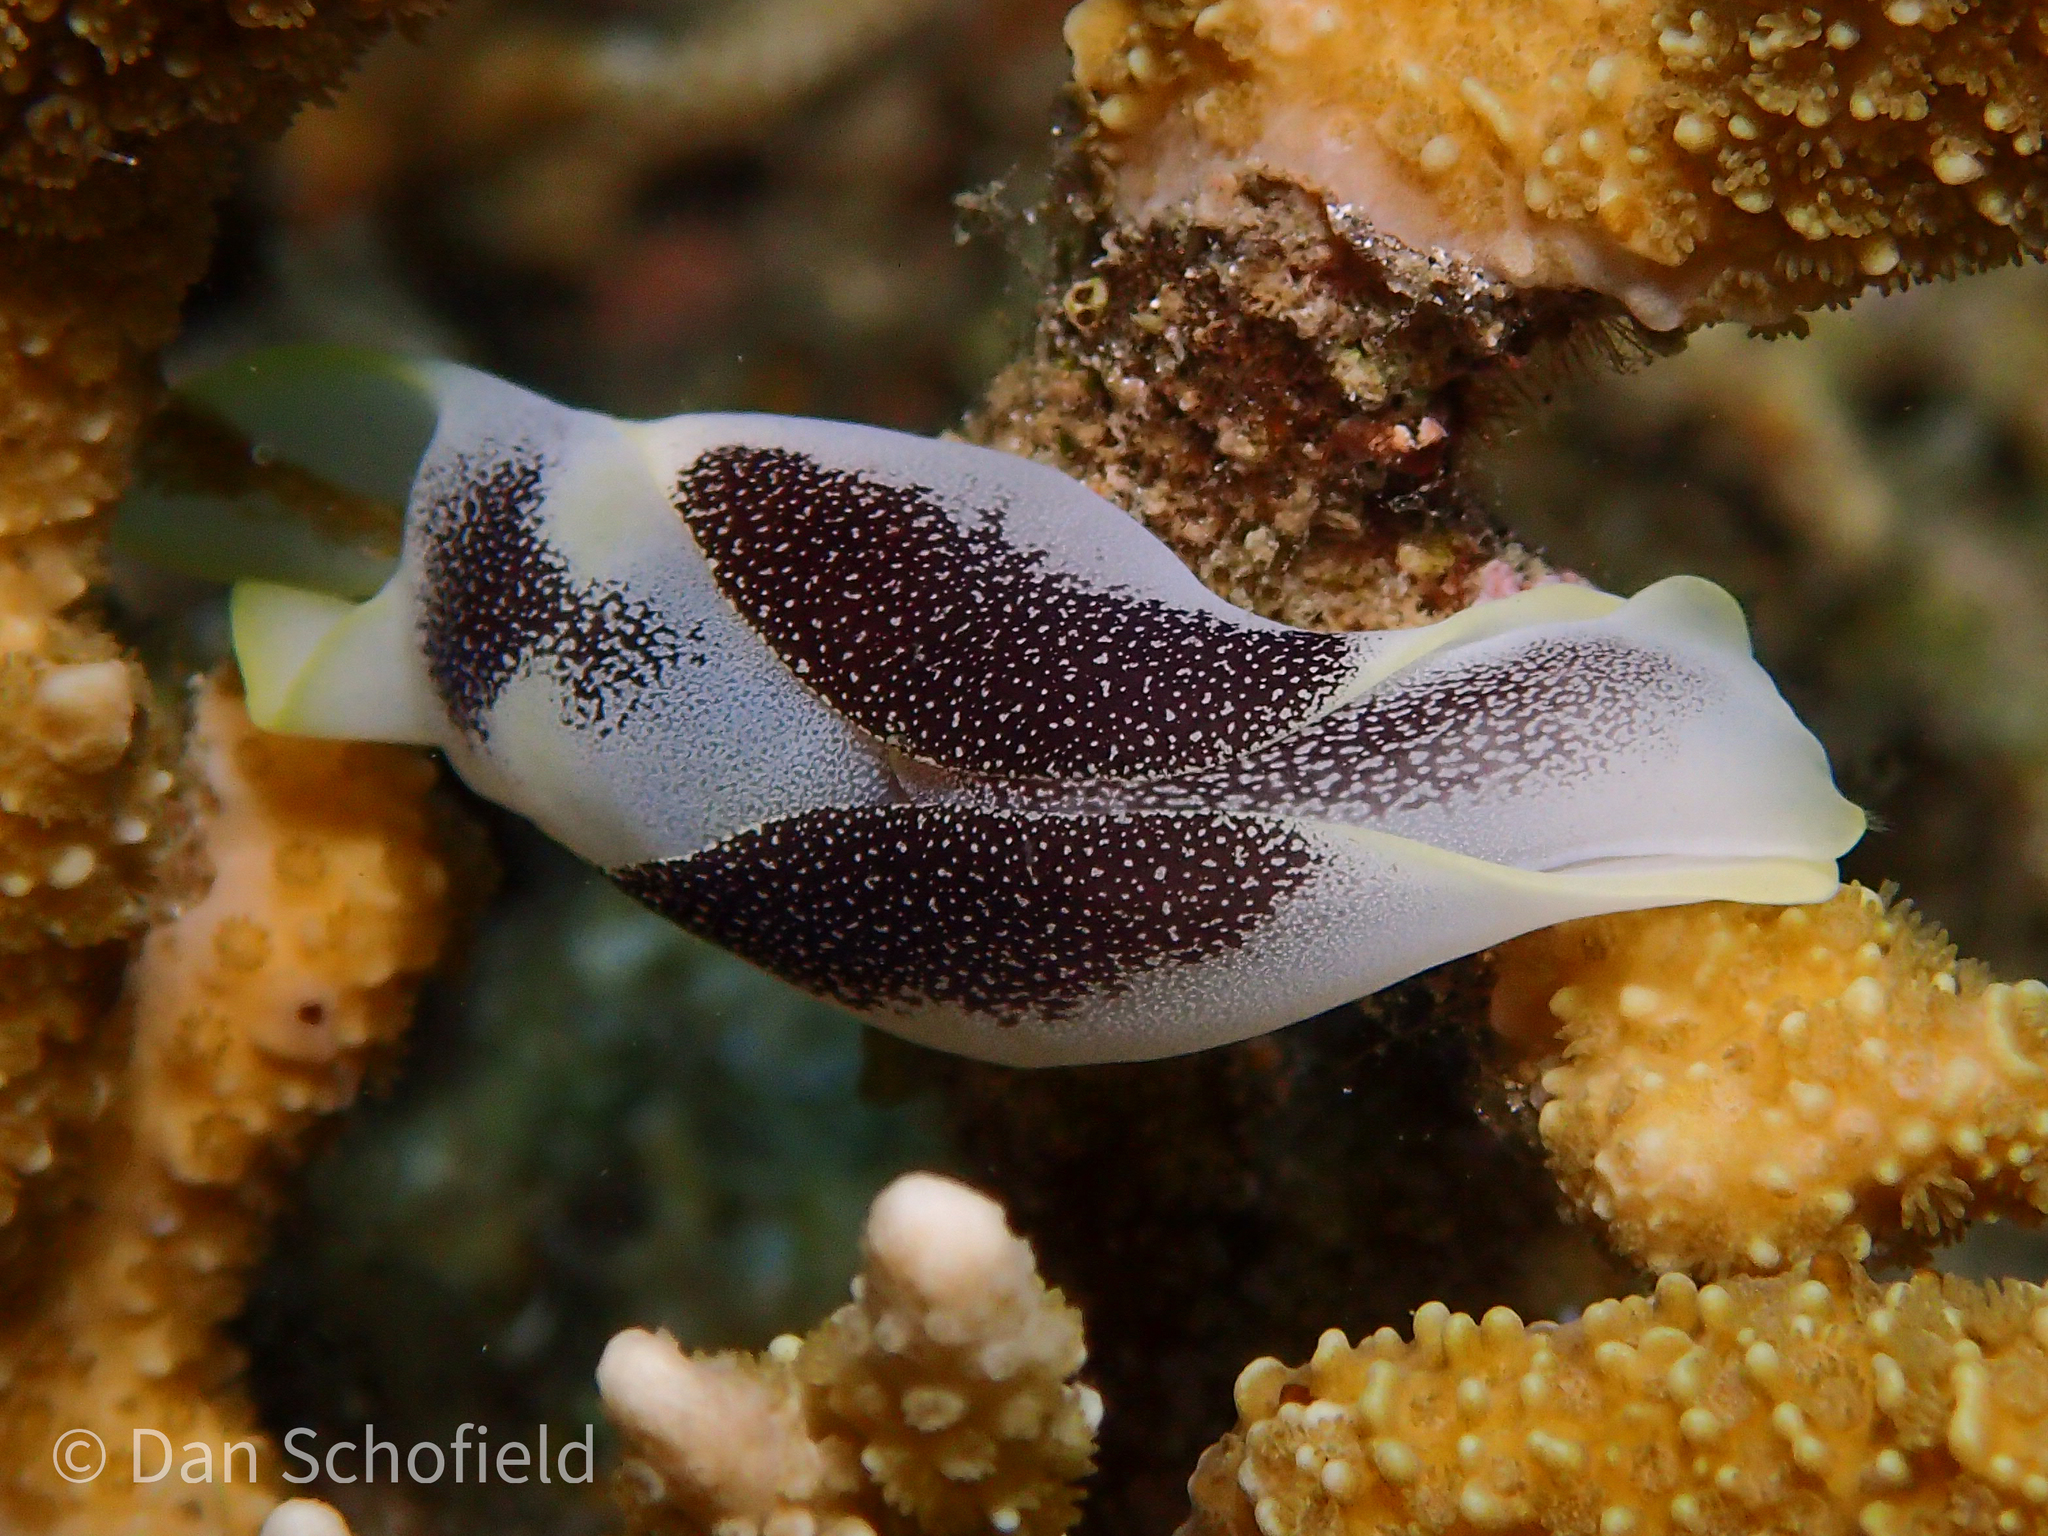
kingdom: Animalia
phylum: Mollusca
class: Gastropoda
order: Cephalaspidea
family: Aglajidae
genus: Chelidonura
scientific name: Chelidonura amoena
